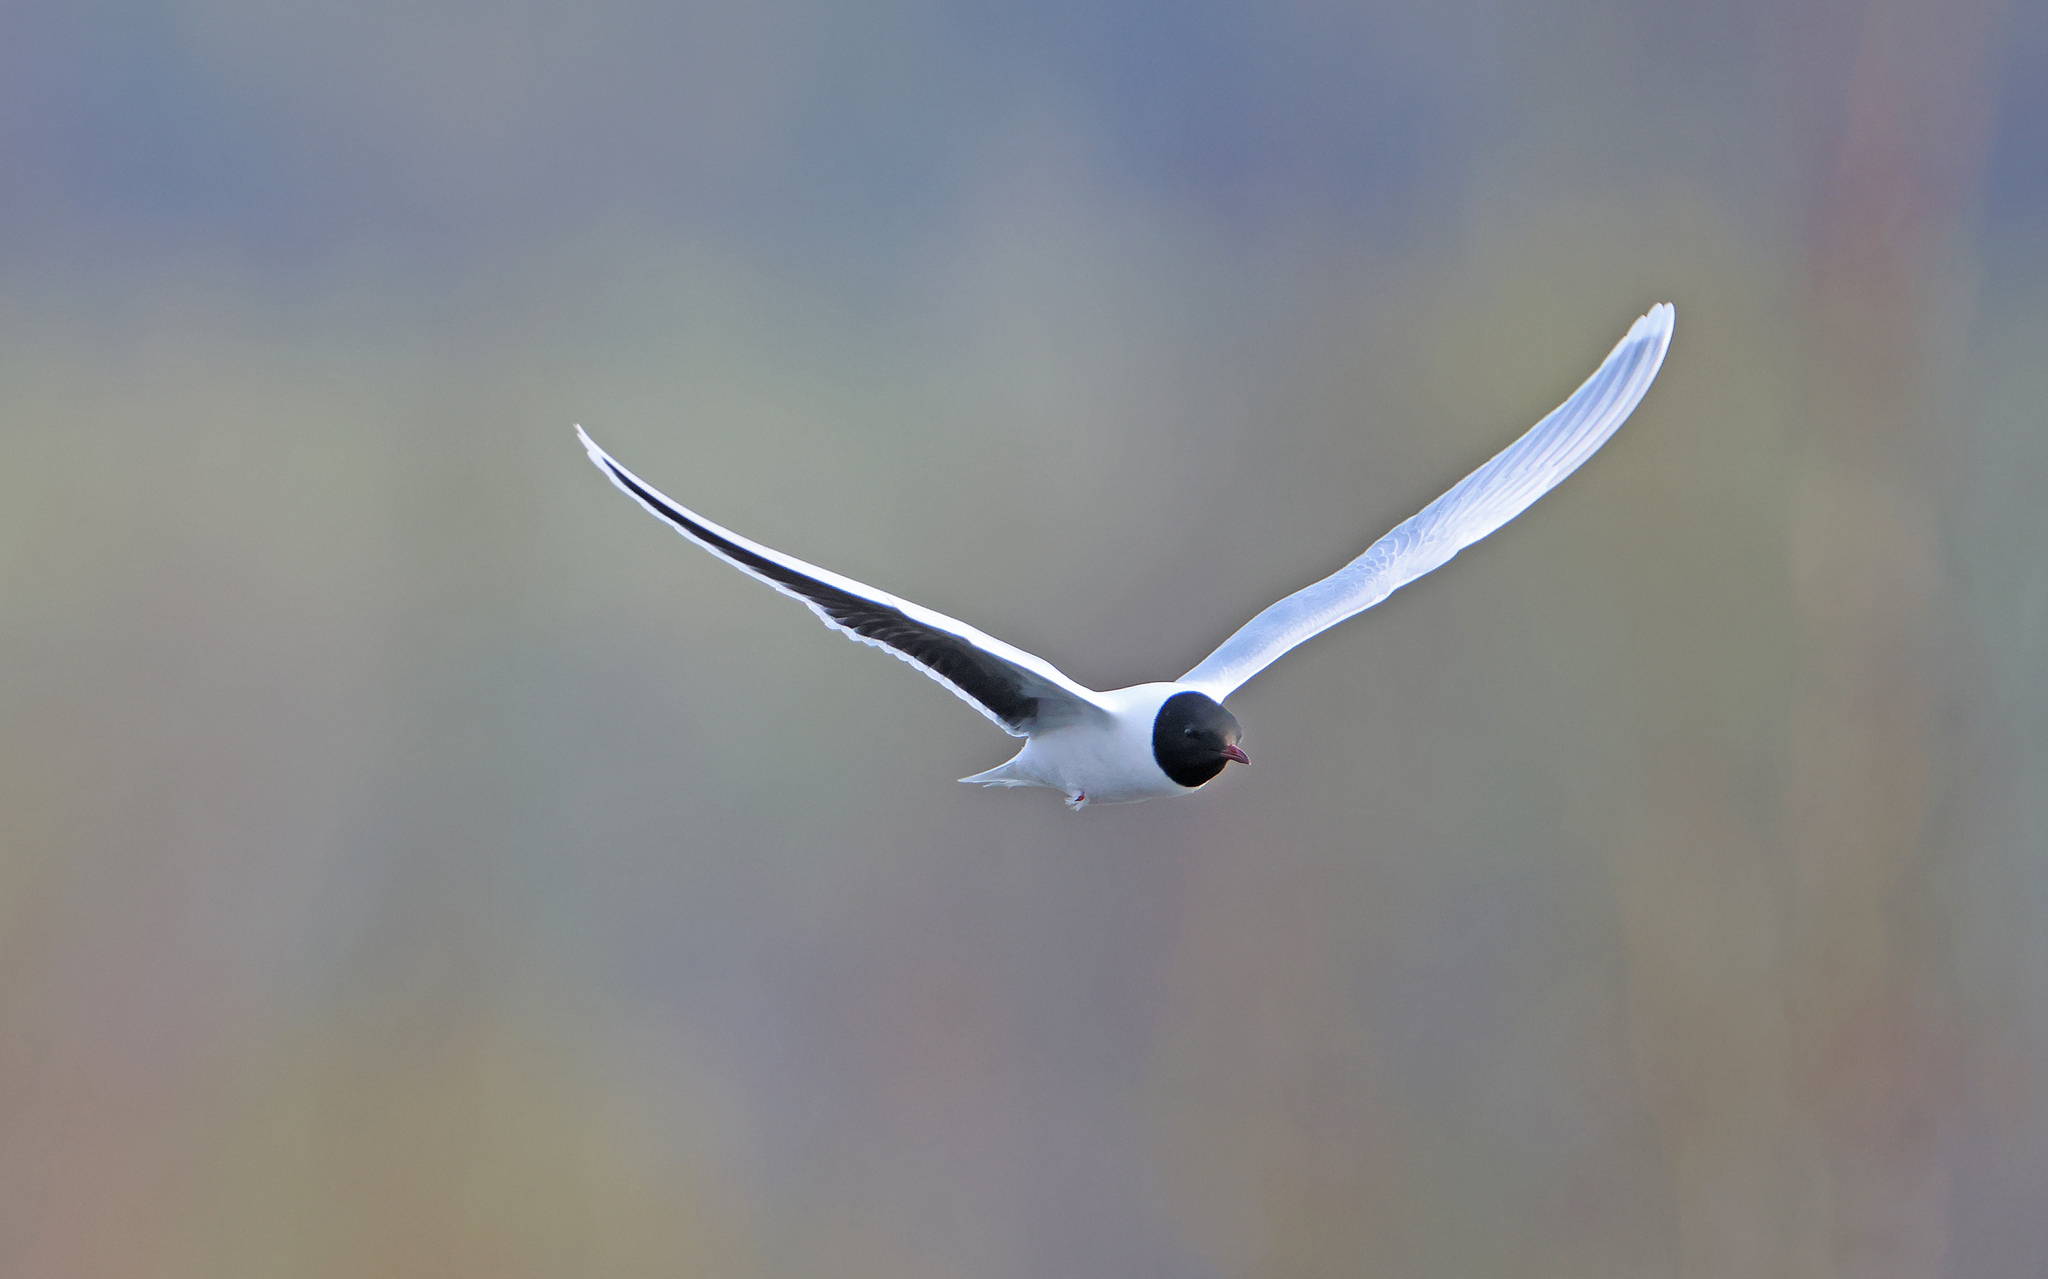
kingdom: Animalia
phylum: Chordata
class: Aves
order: Charadriiformes
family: Laridae
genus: Hydrocoloeus
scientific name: Hydrocoloeus minutus
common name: Little gull
